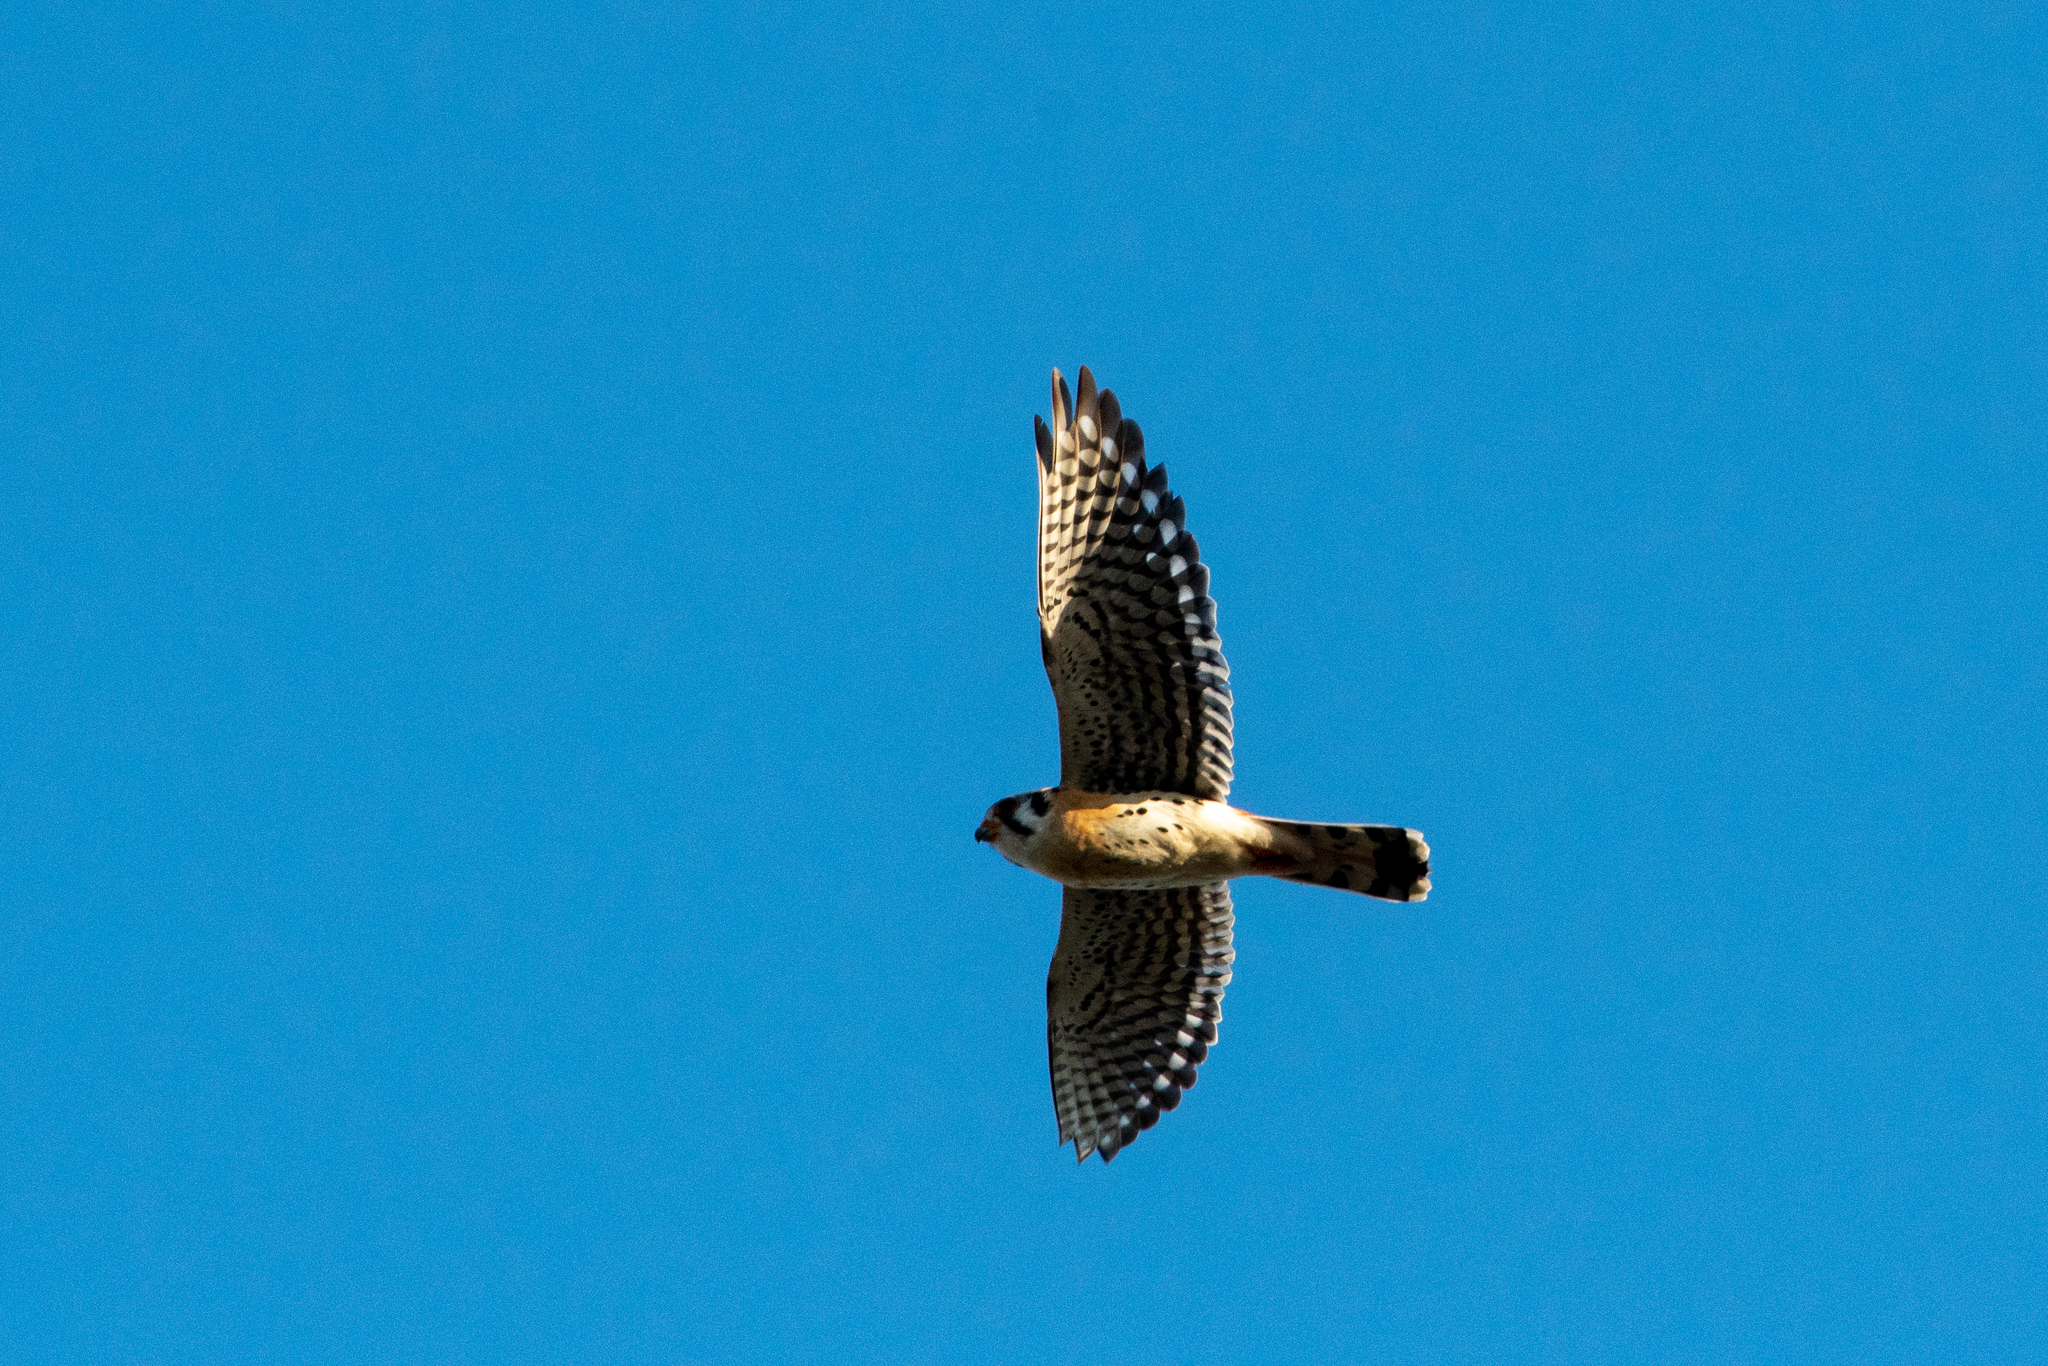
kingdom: Animalia
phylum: Chordata
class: Aves
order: Falconiformes
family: Falconidae
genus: Falco
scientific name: Falco sparverius
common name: American kestrel
